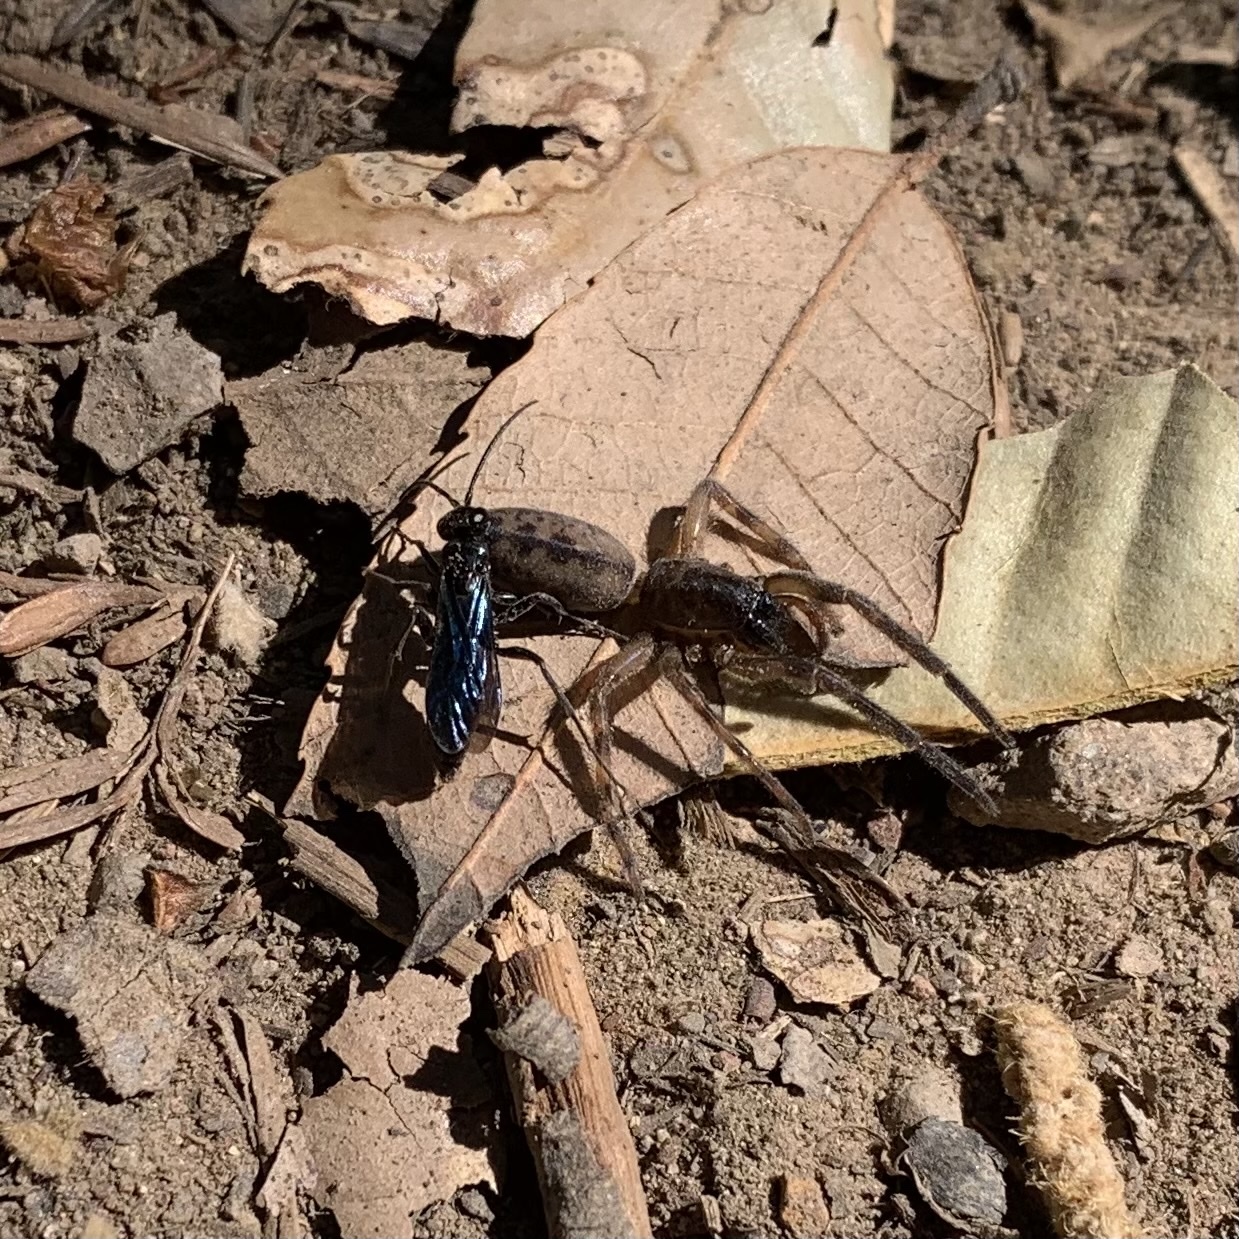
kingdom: Animalia
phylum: Arthropoda
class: Arachnida
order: Araneae
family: Segestriidae
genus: Segestria
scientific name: Segestria pacifica
